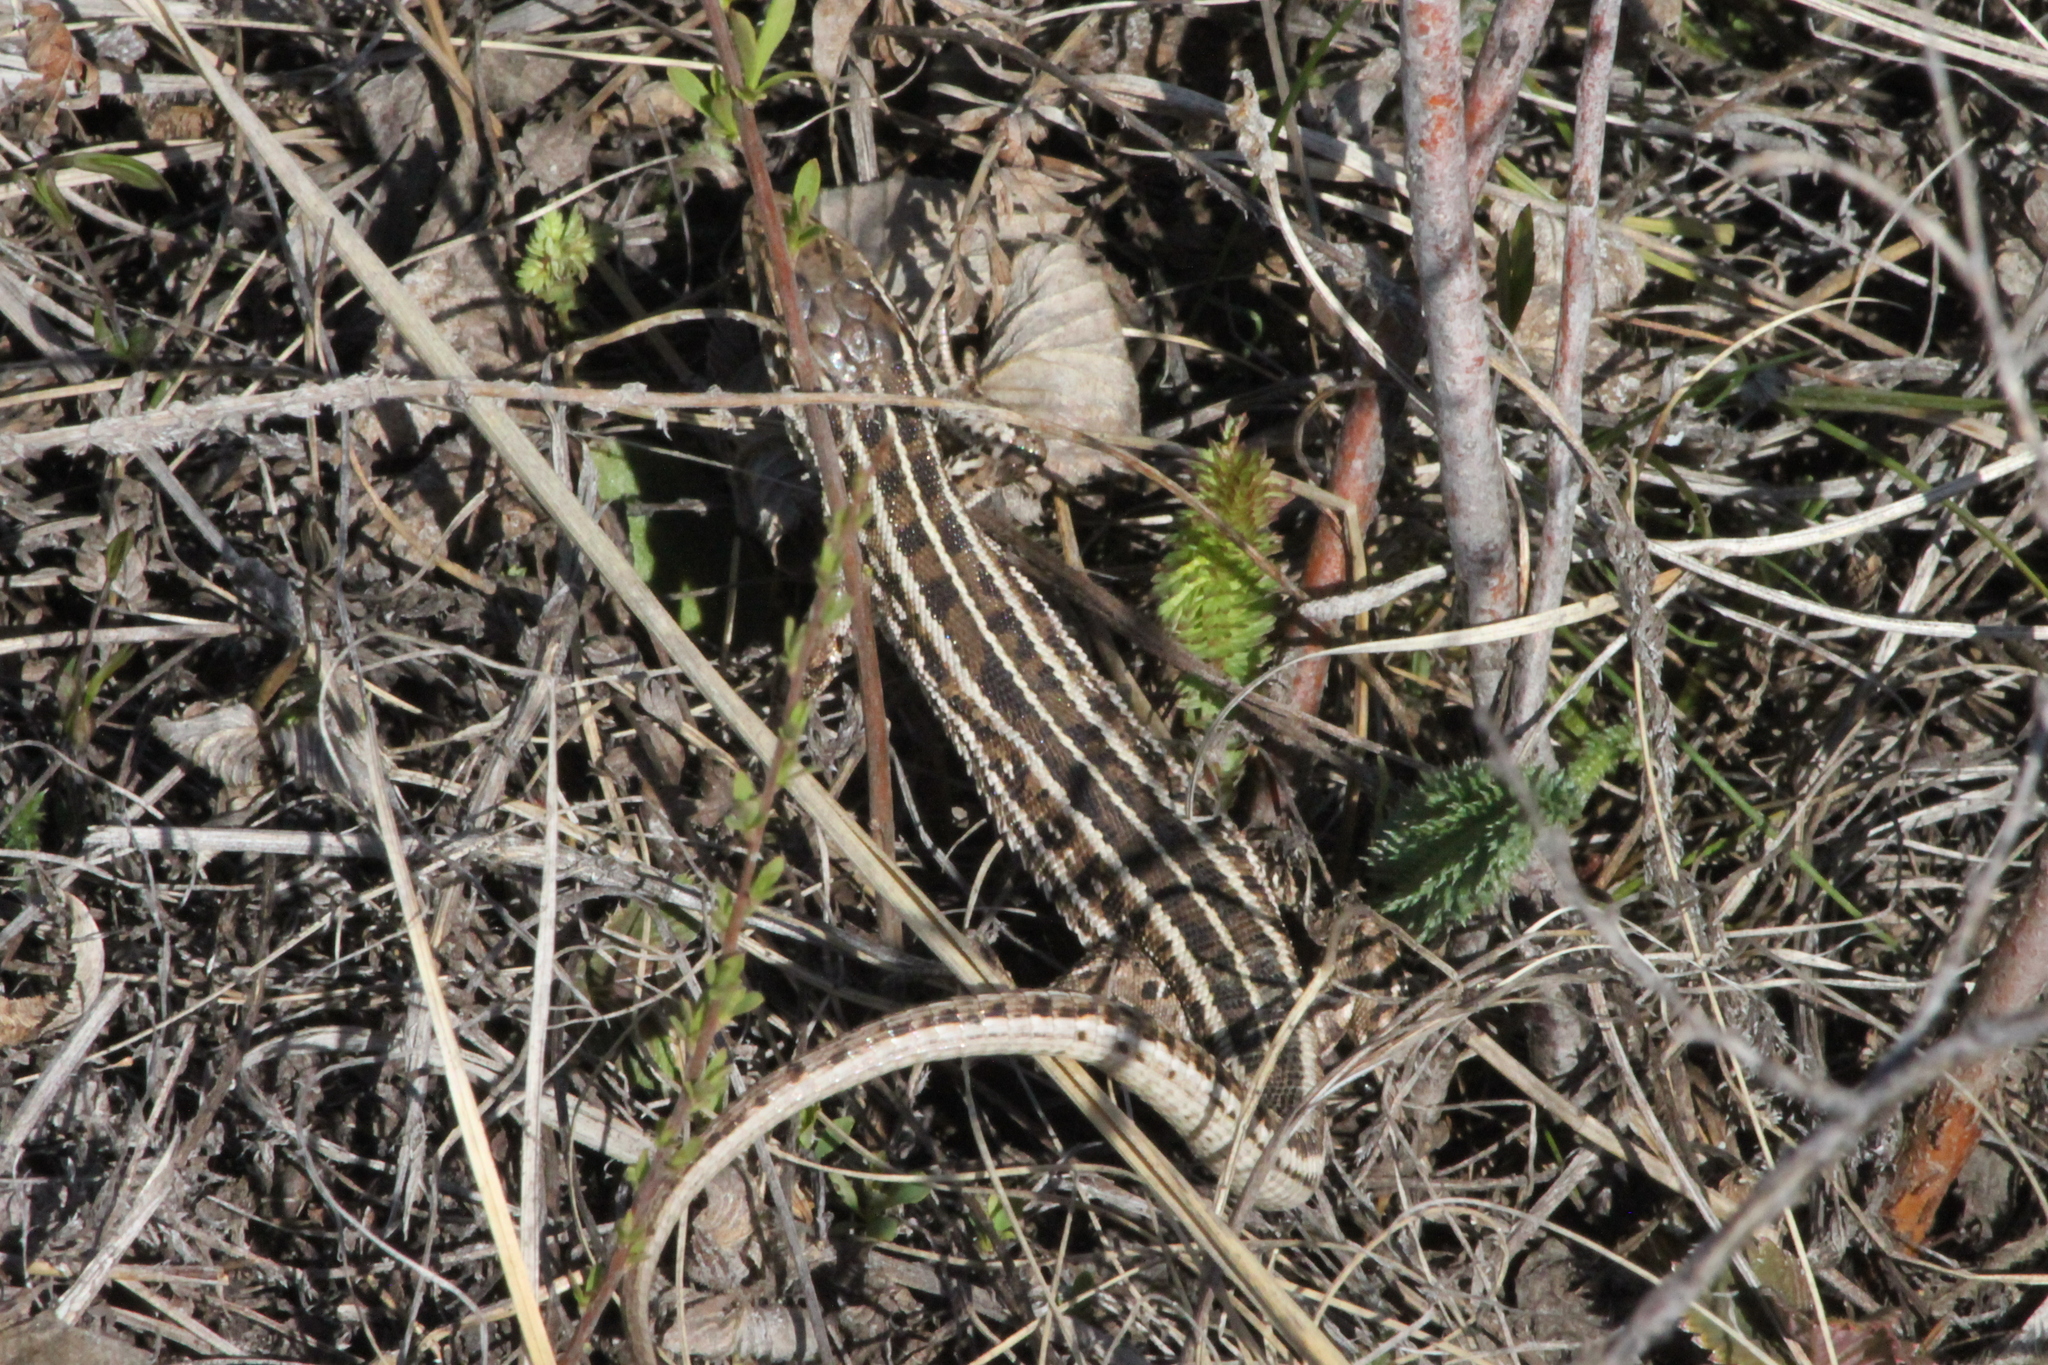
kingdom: Animalia
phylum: Chordata
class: Squamata
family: Lacertidae
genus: Lacerta
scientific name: Lacerta agilis
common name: Sand lizard
